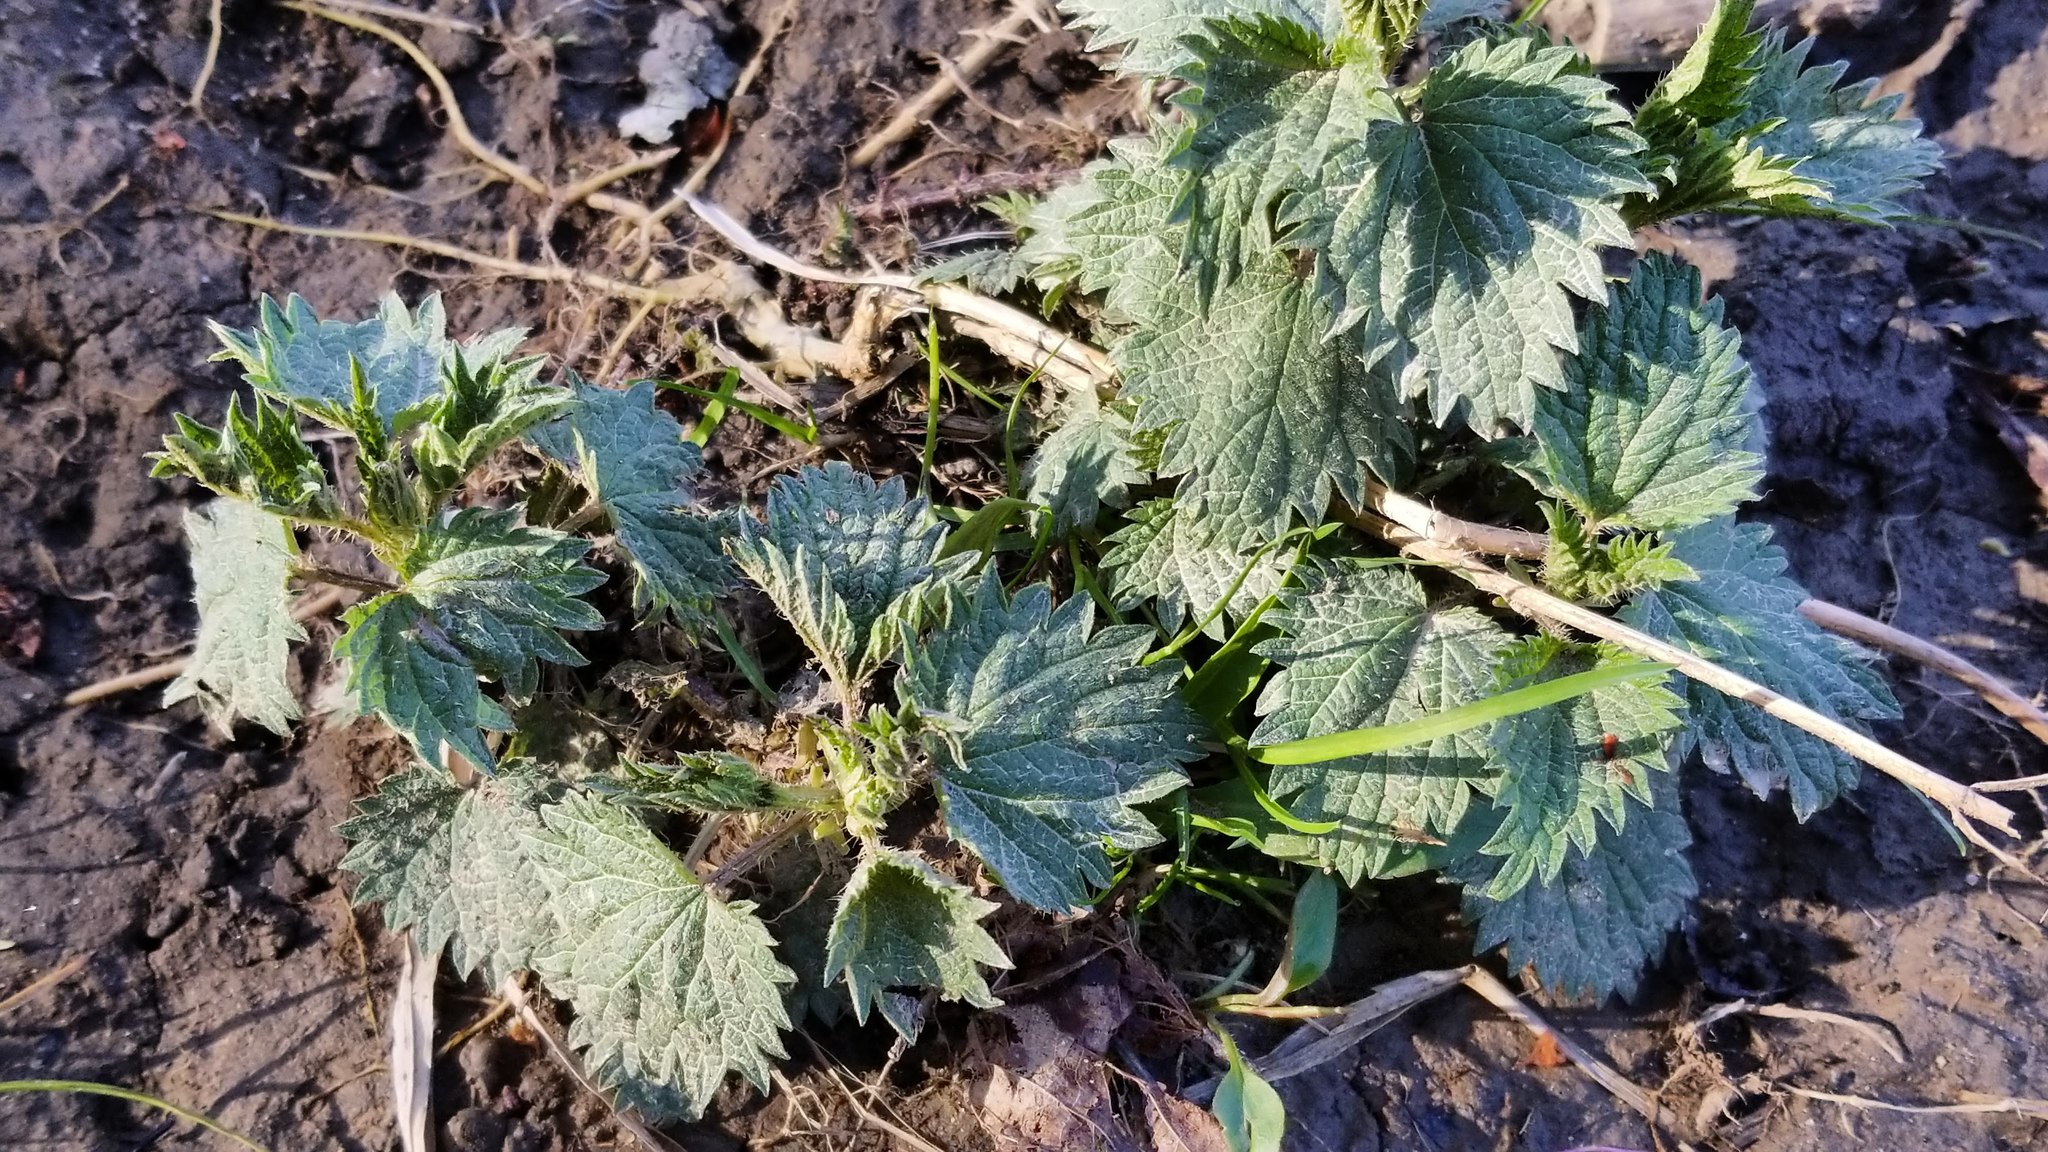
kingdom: Plantae
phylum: Tracheophyta
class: Magnoliopsida
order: Rosales
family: Urticaceae
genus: Urtica
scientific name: Urtica dioica
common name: Common nettle
